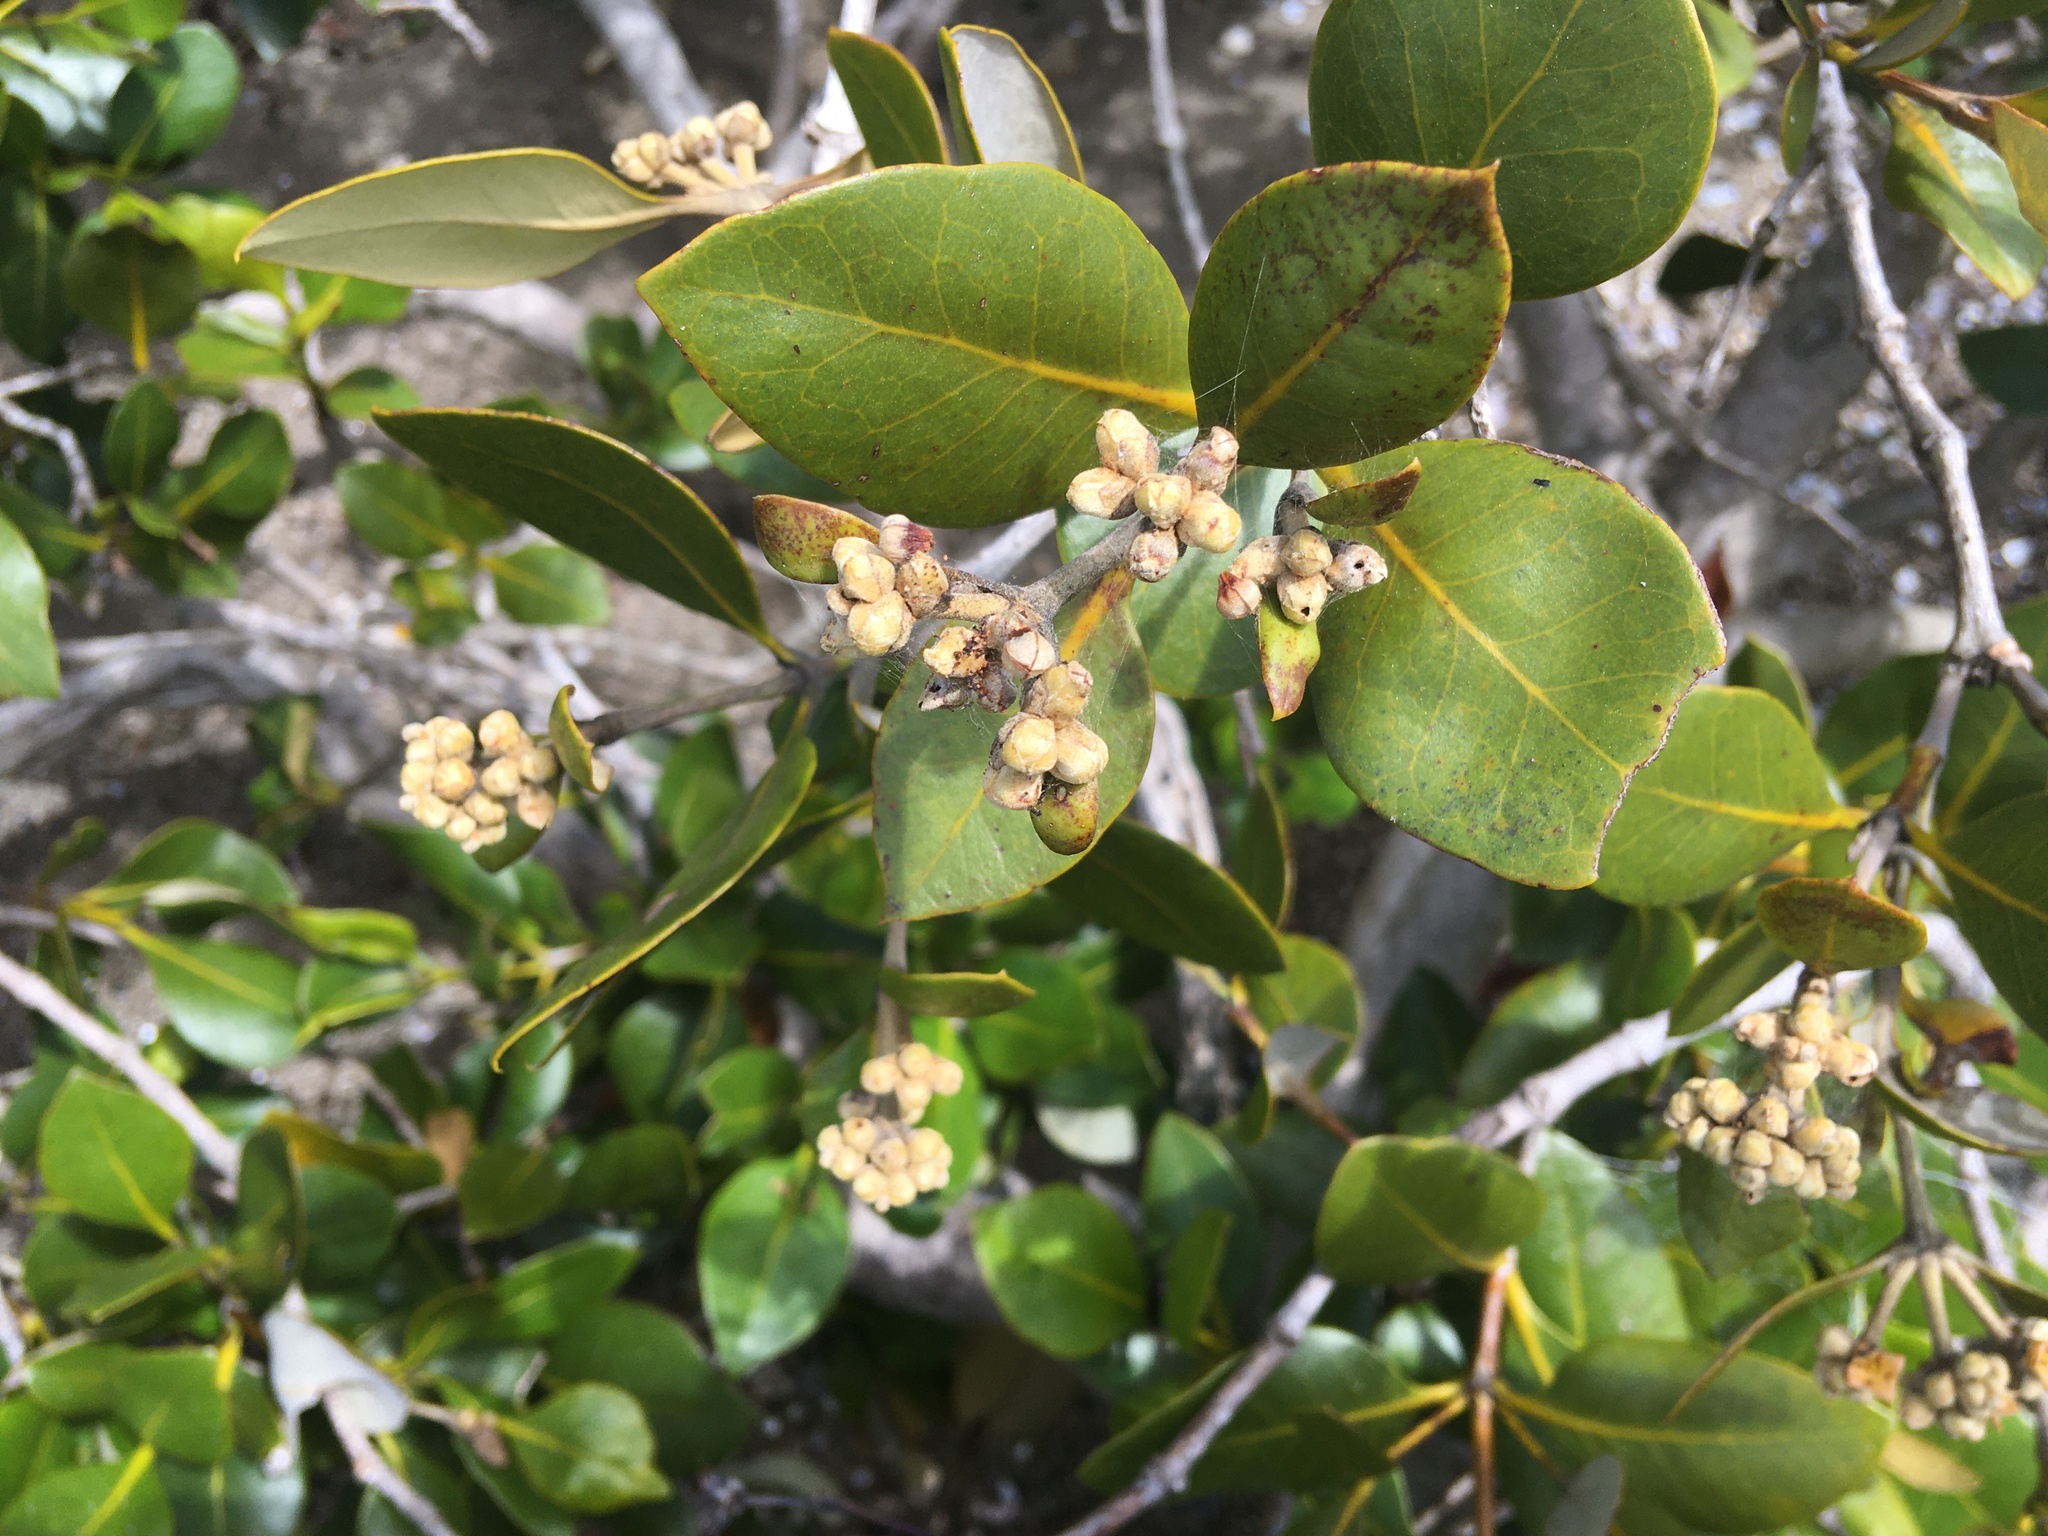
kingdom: Plantae
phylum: Tracheophyta
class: Magnoliopsida
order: Lamiales
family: Acanthaceae
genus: Avicennia
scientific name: Avicennia marina
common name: Gray mangrove
